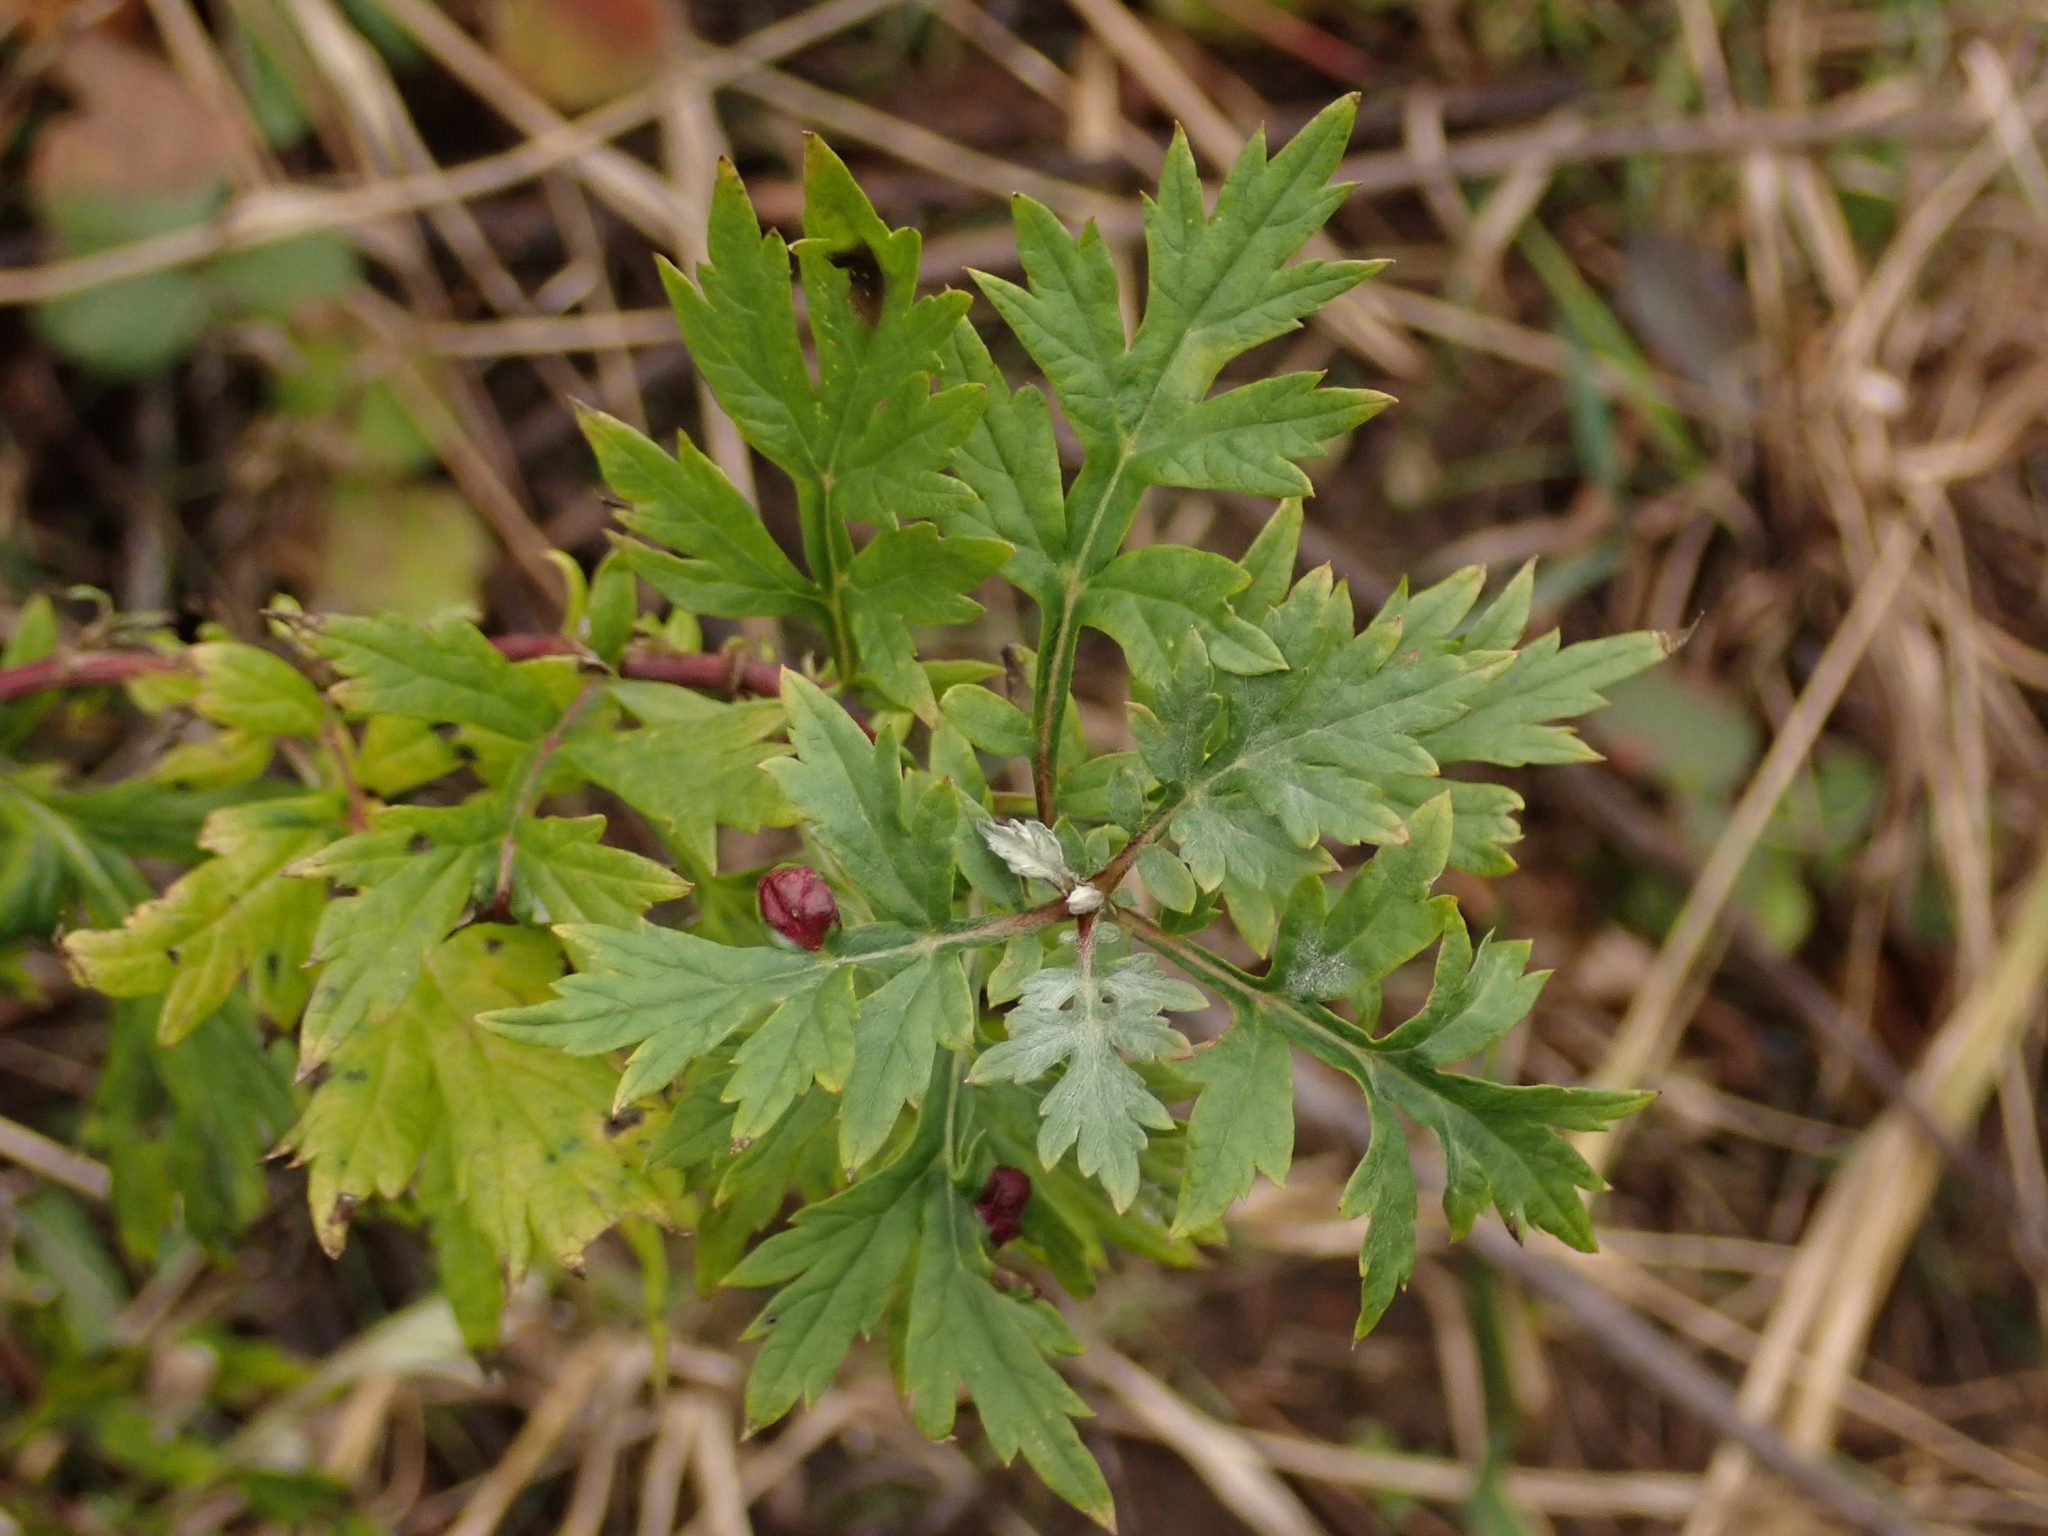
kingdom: Plantae
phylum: Tracheophyta
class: Magnoliopsida
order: Asterales
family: Asteraceae
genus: Artemisia
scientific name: Artemisia vulgaris
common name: Mugwort
